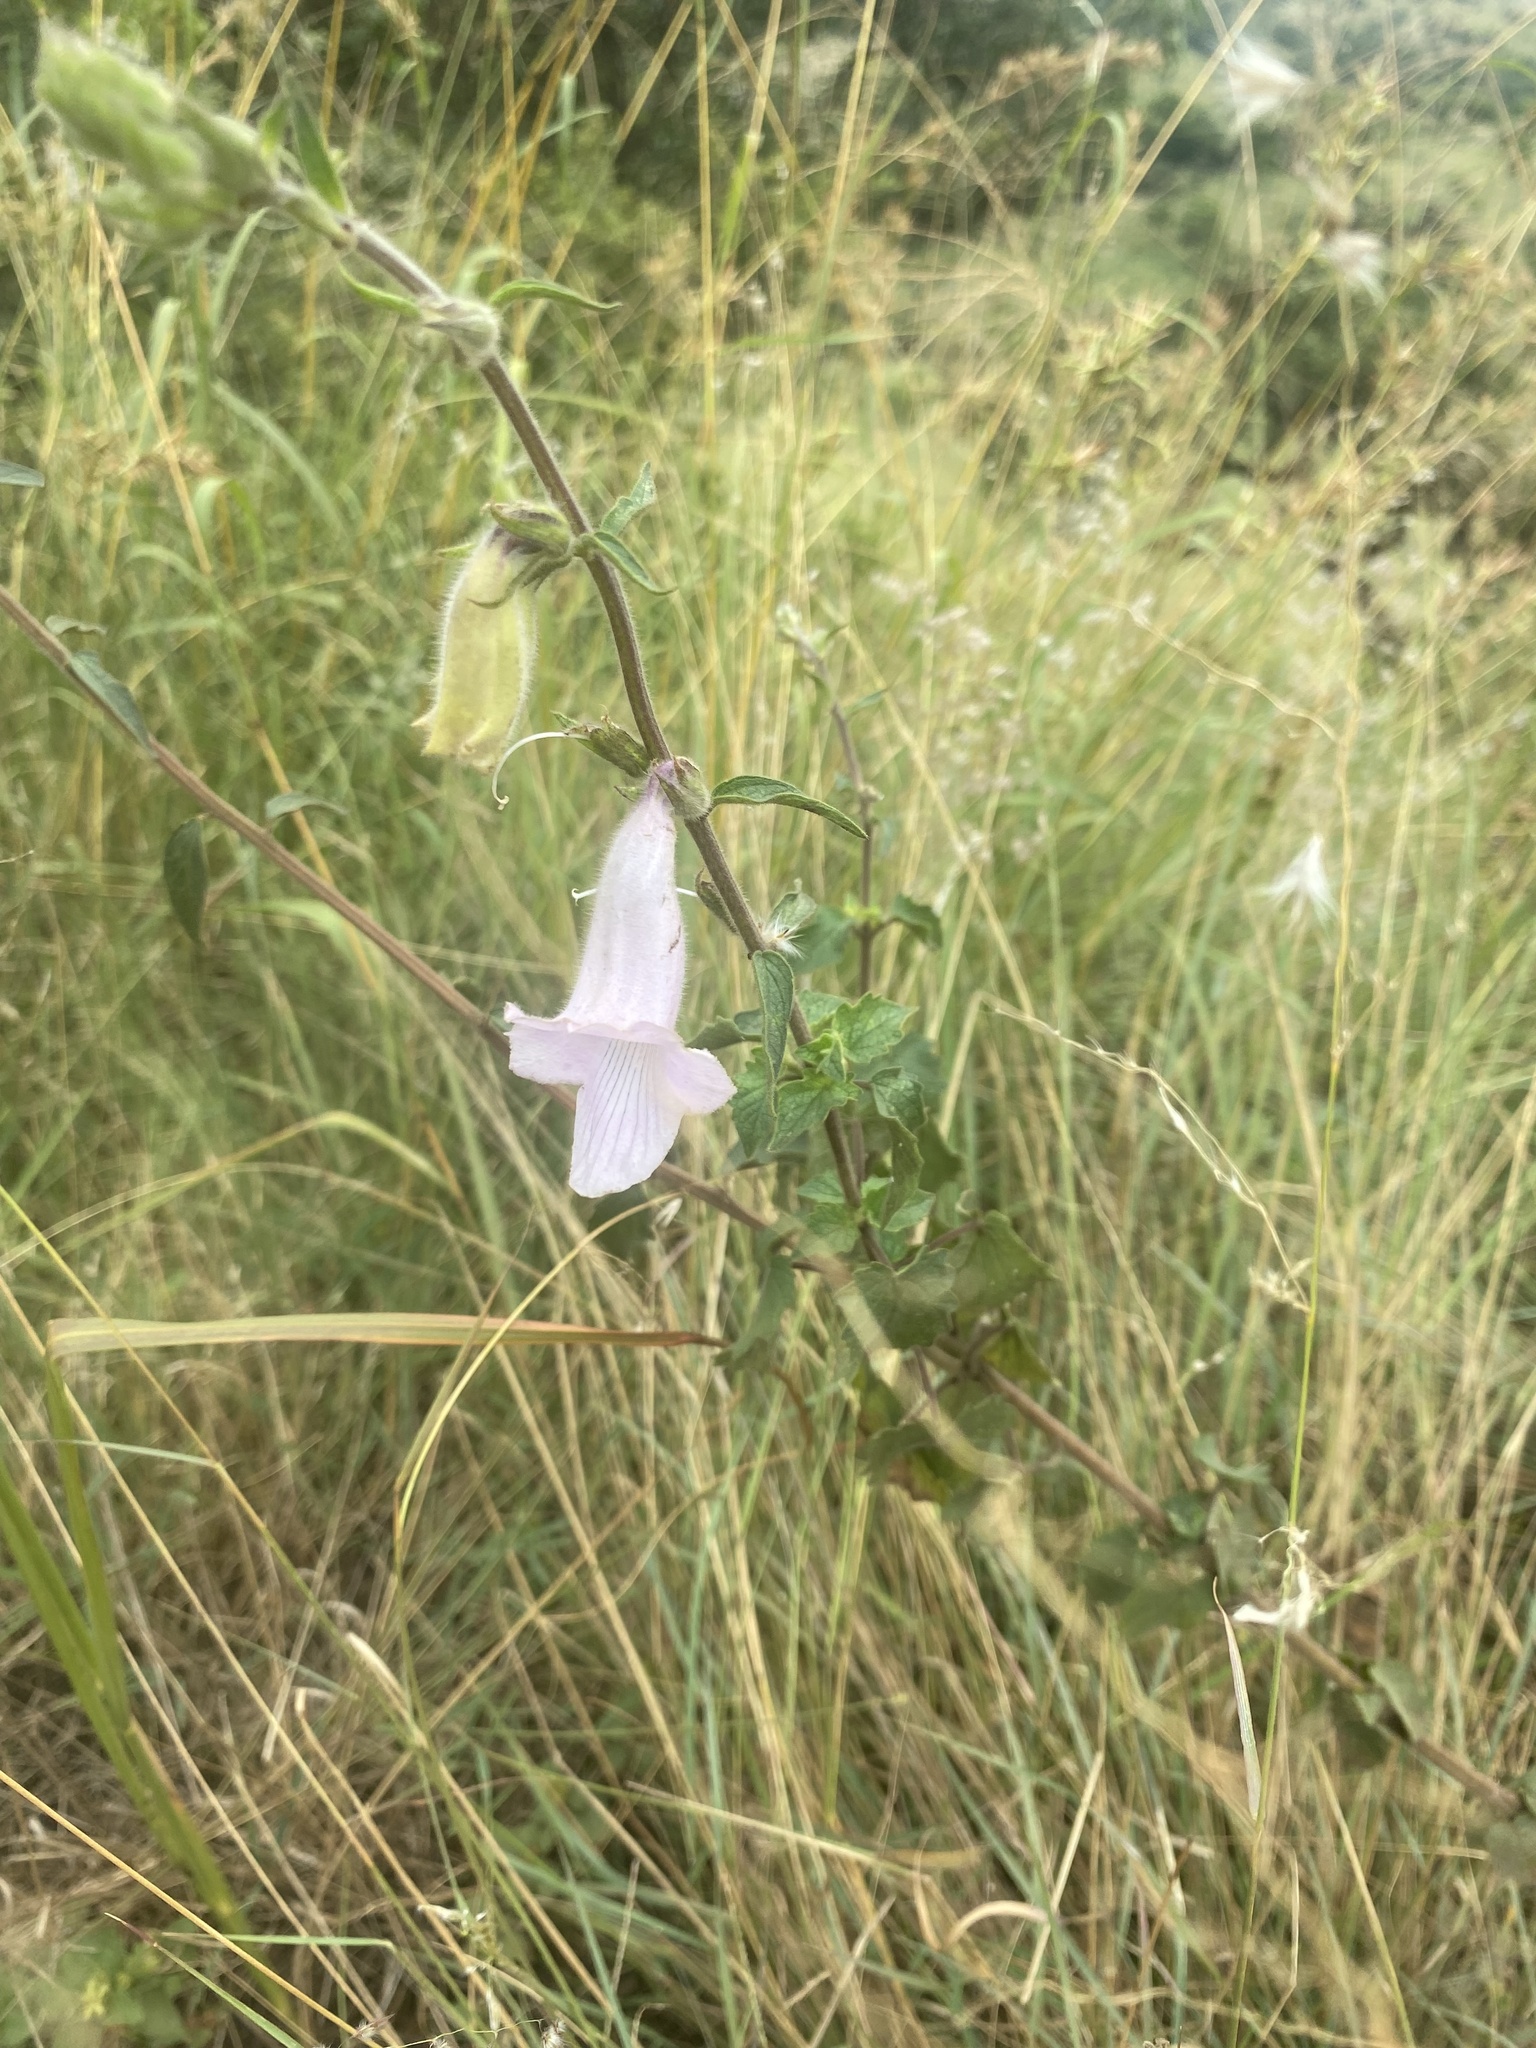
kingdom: Plantae
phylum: Tracheophyta
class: Magnoliopsida
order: Lamiales
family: Pedaliaceae
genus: Sesamum
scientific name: Sesamum trilobum
